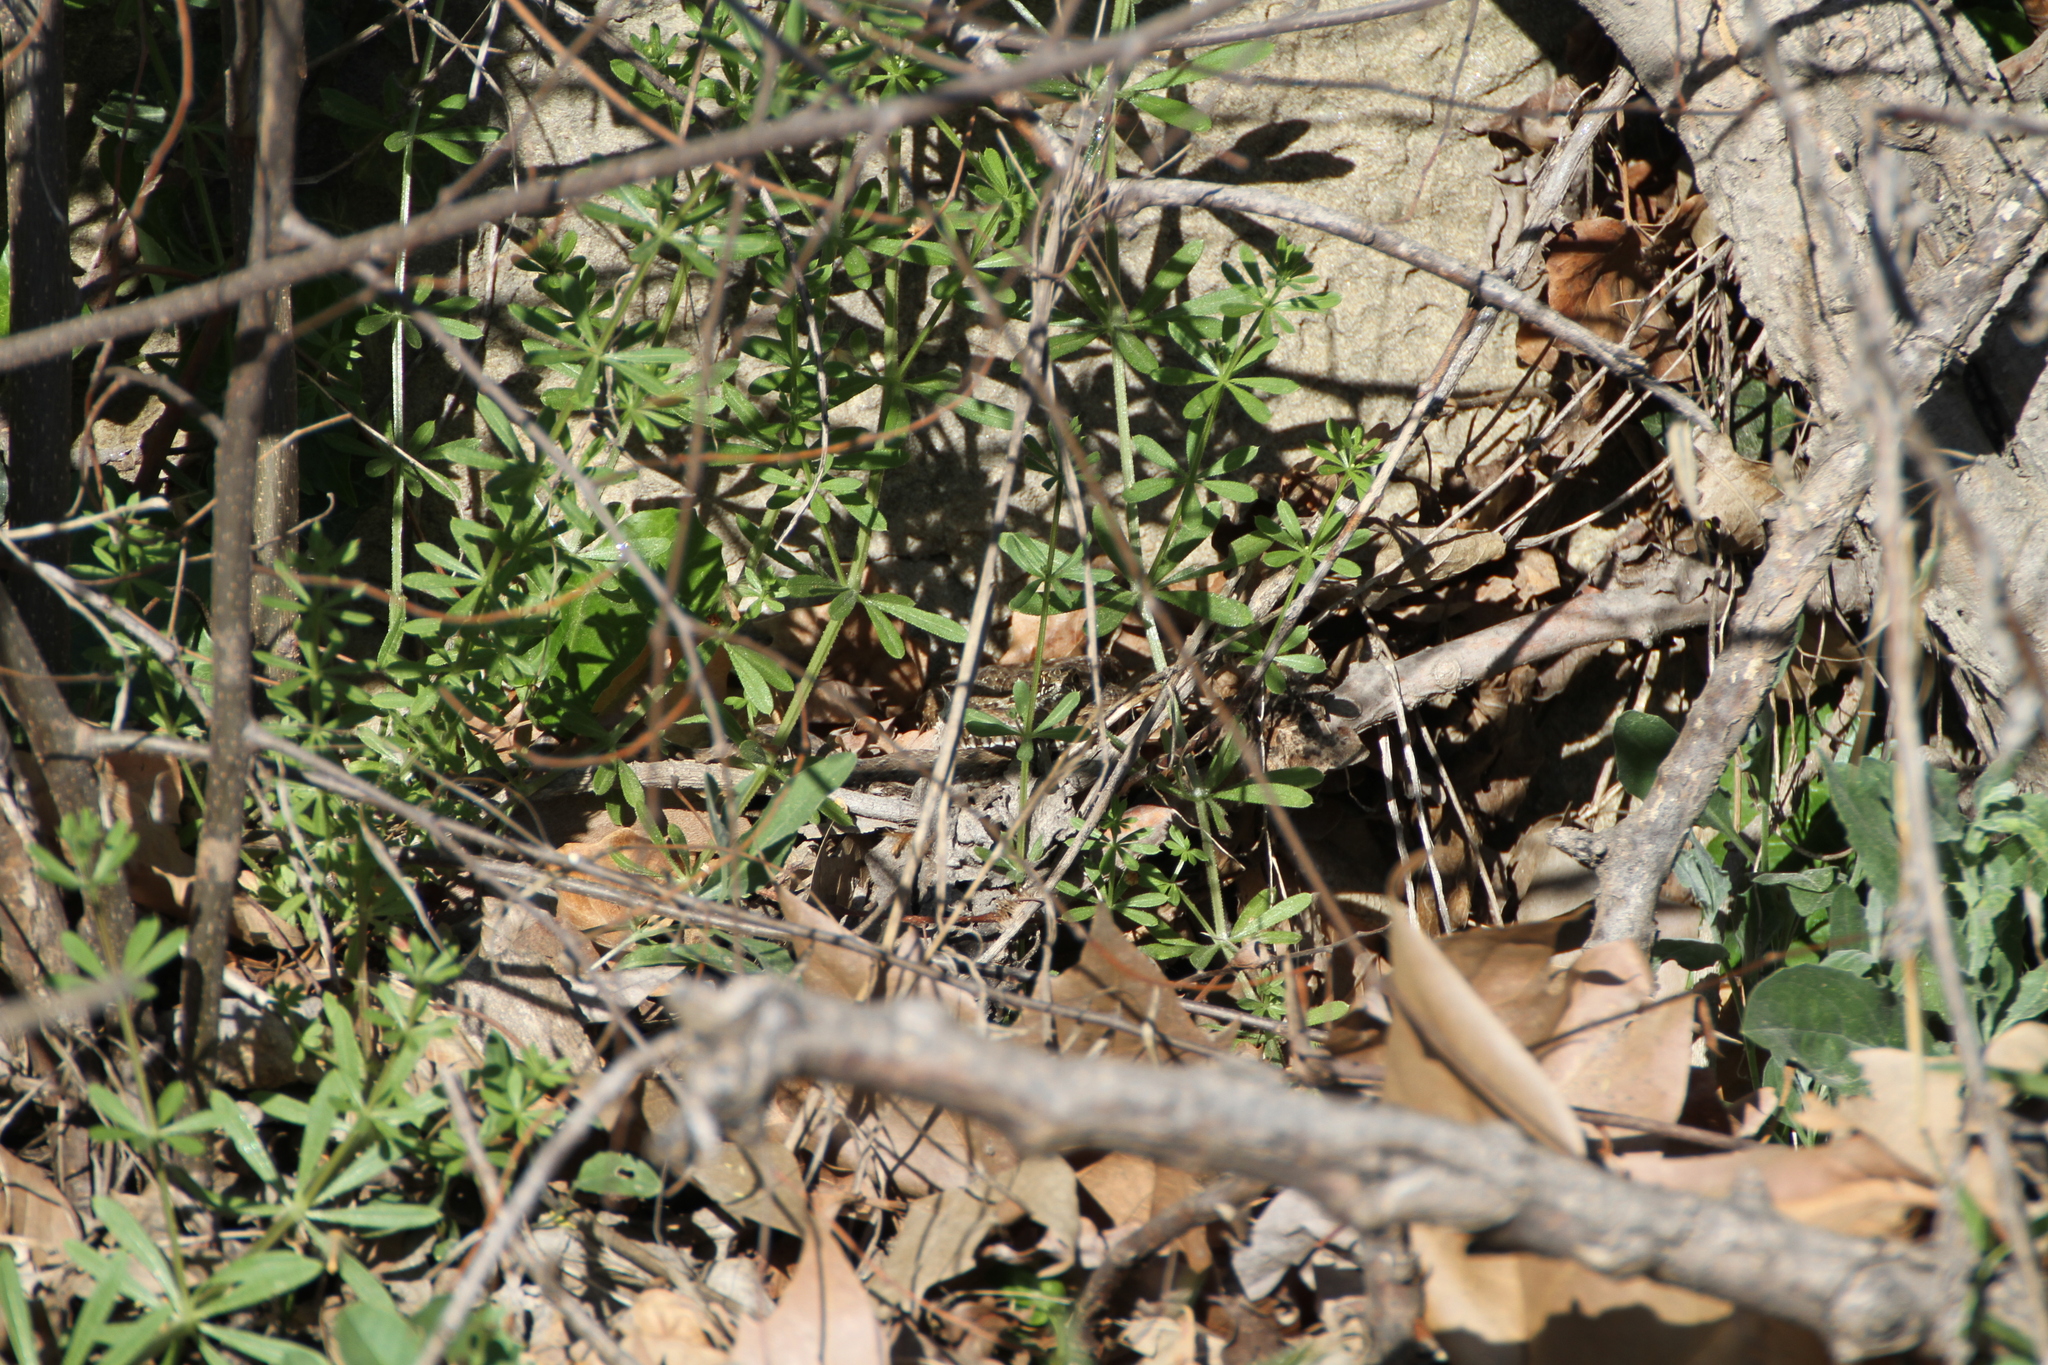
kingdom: Animalia
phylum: Chordata
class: Squamata
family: Psammophiidae
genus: Malpolon
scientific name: Malpolon monspessulanus
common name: Montpellier snake
